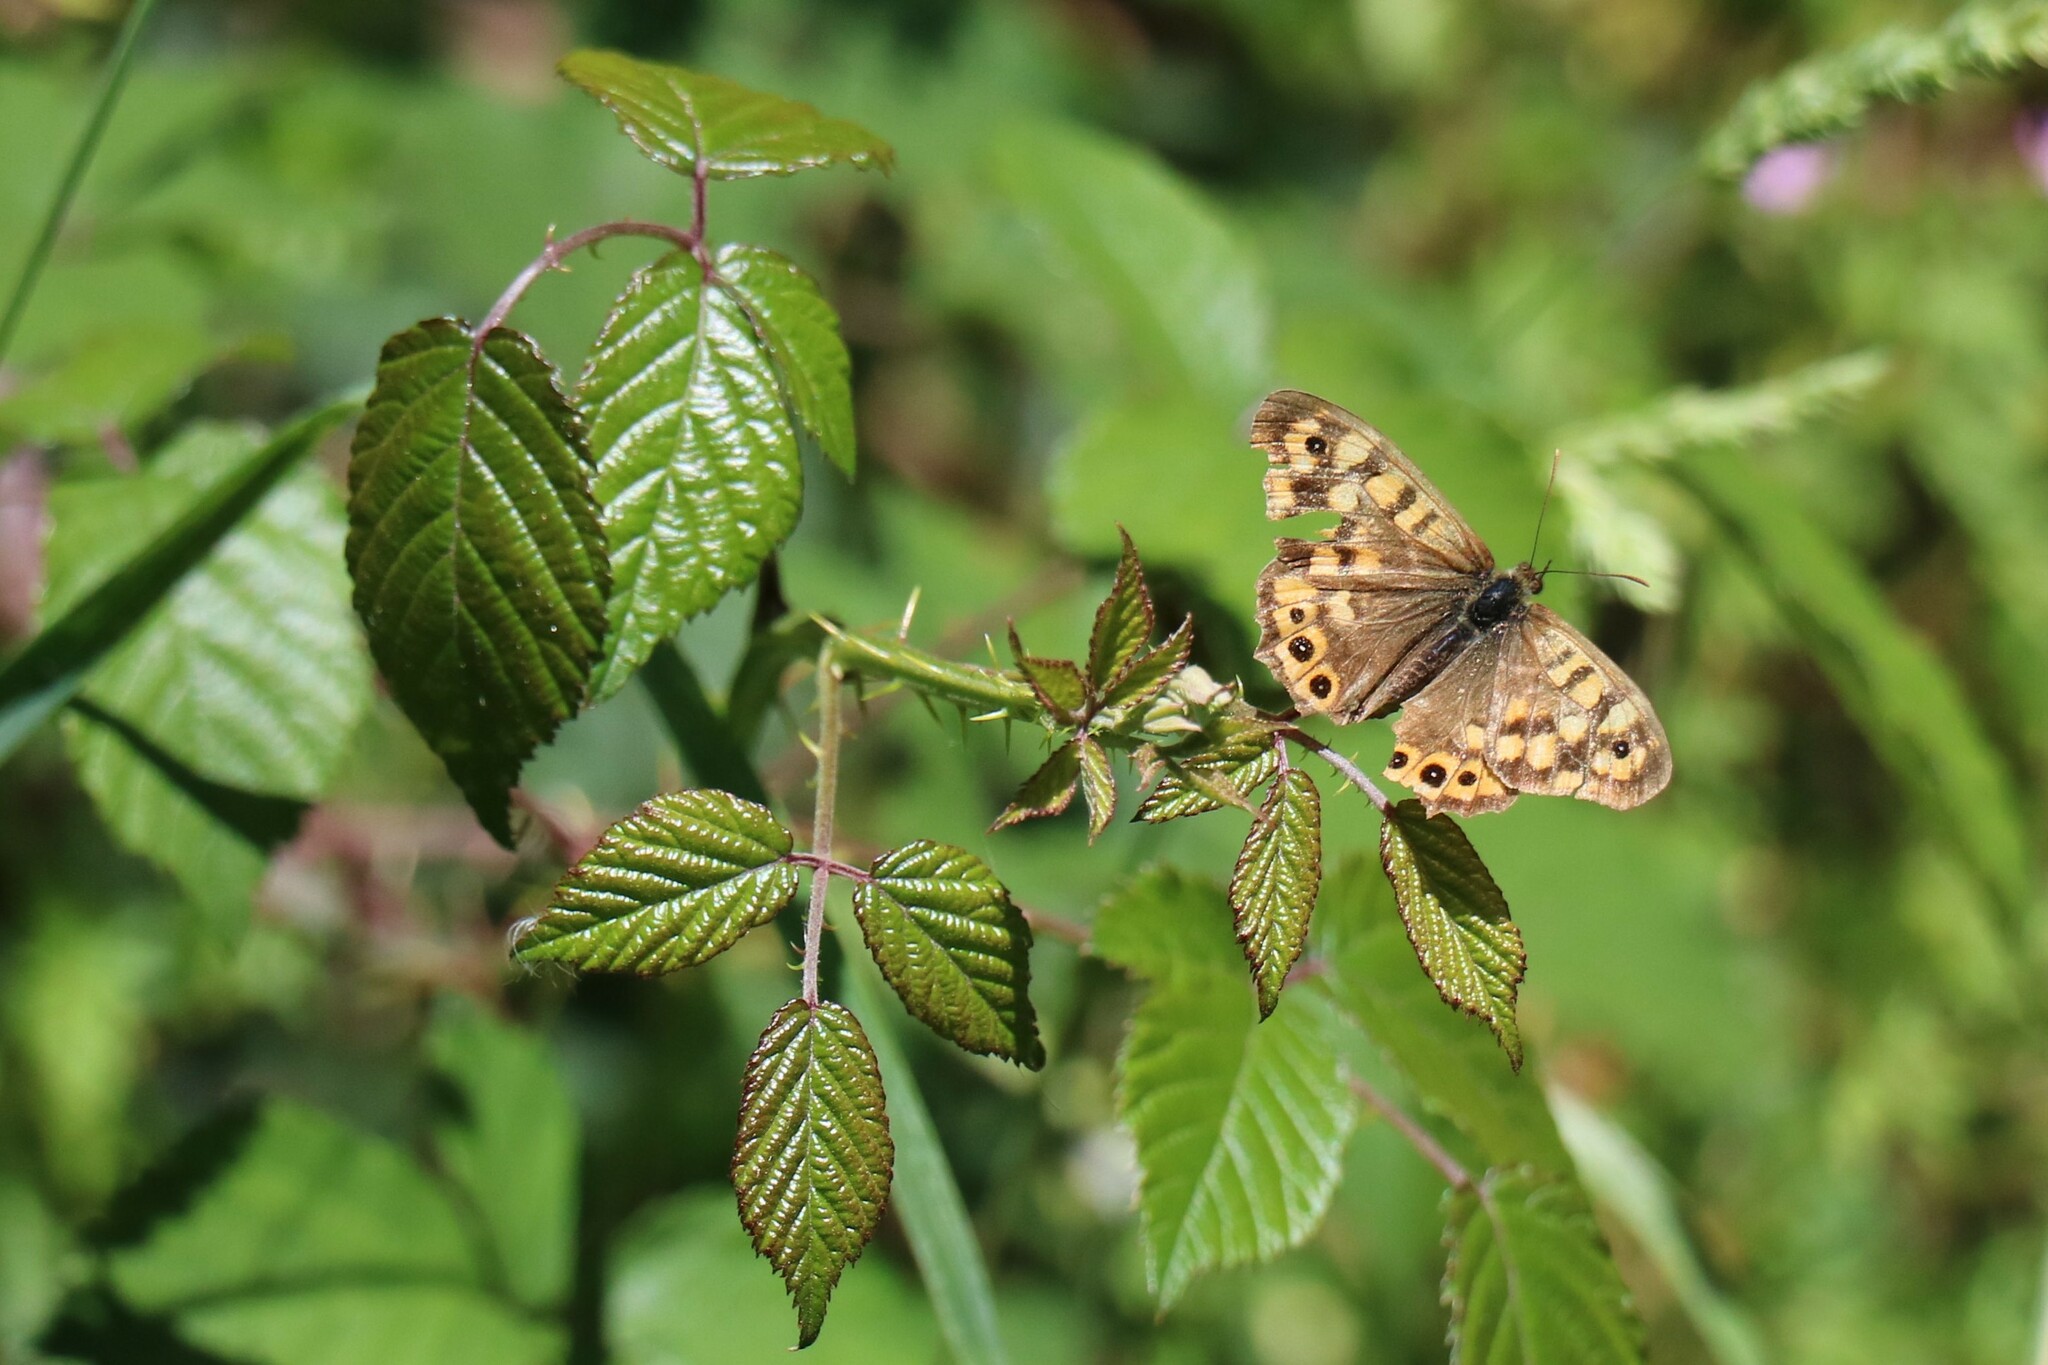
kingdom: Animalia
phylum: Arthropoda
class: Insecta
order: Lepidoptera
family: Nymphalidae
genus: Pararge
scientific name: Pararge aegeria
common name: Speckled wood
